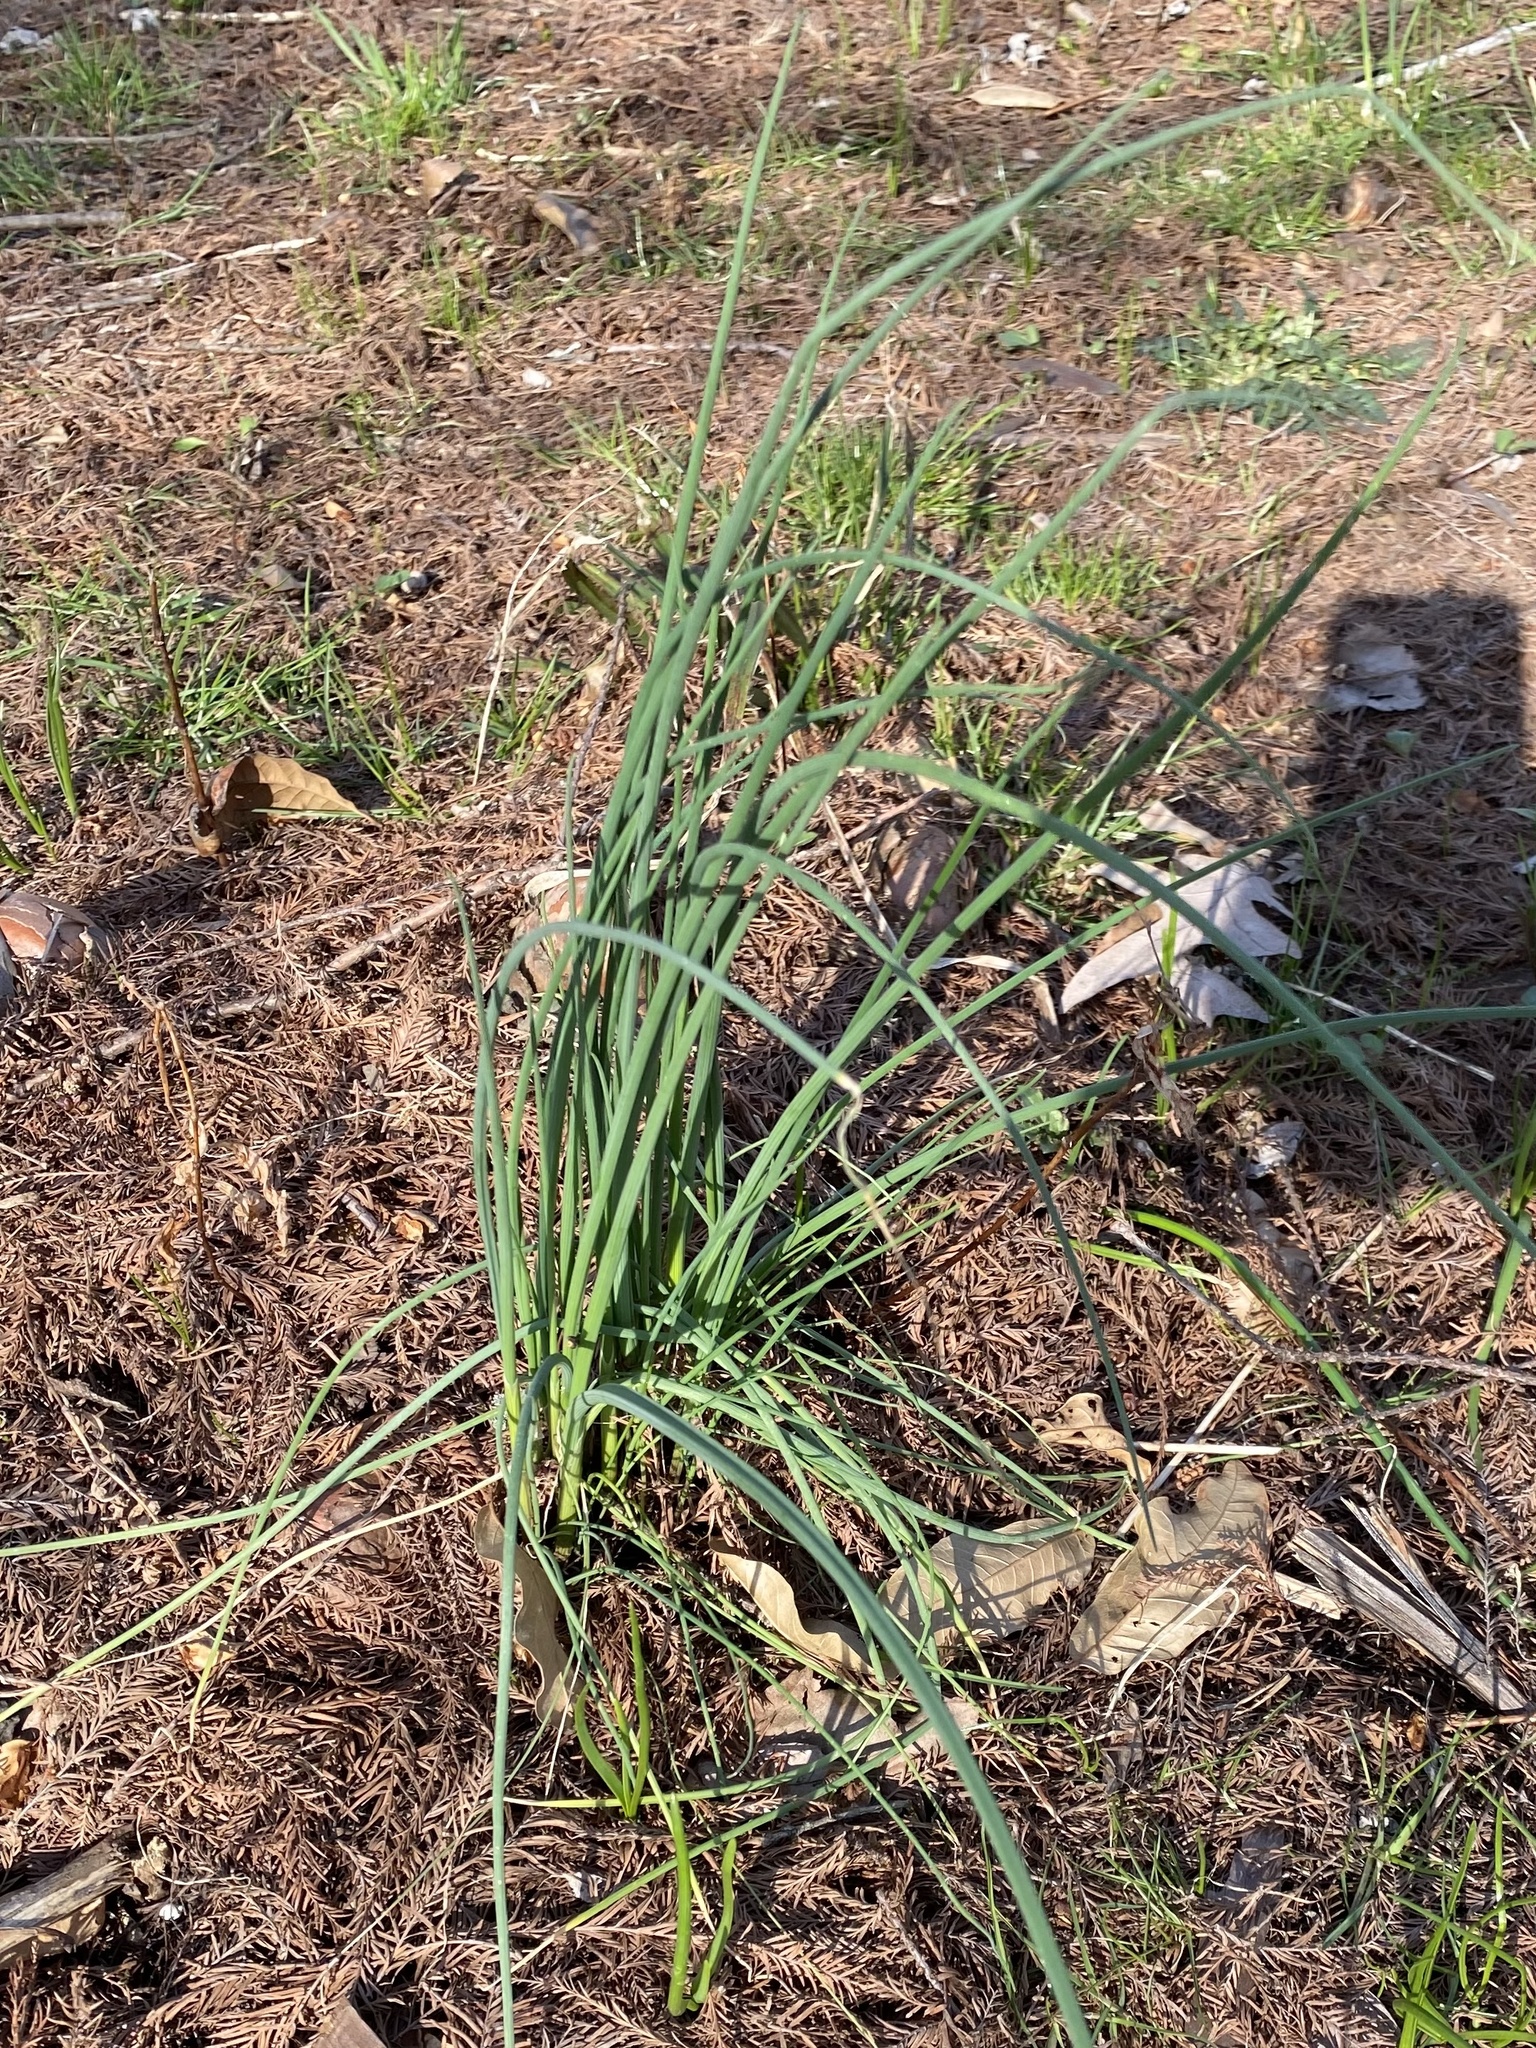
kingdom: Plantae
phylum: Tracheophyta
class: Liliopsida
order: Asparagales
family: Amaryllidaceae
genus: Allium
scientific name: Allium vineale
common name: Crow garlic
